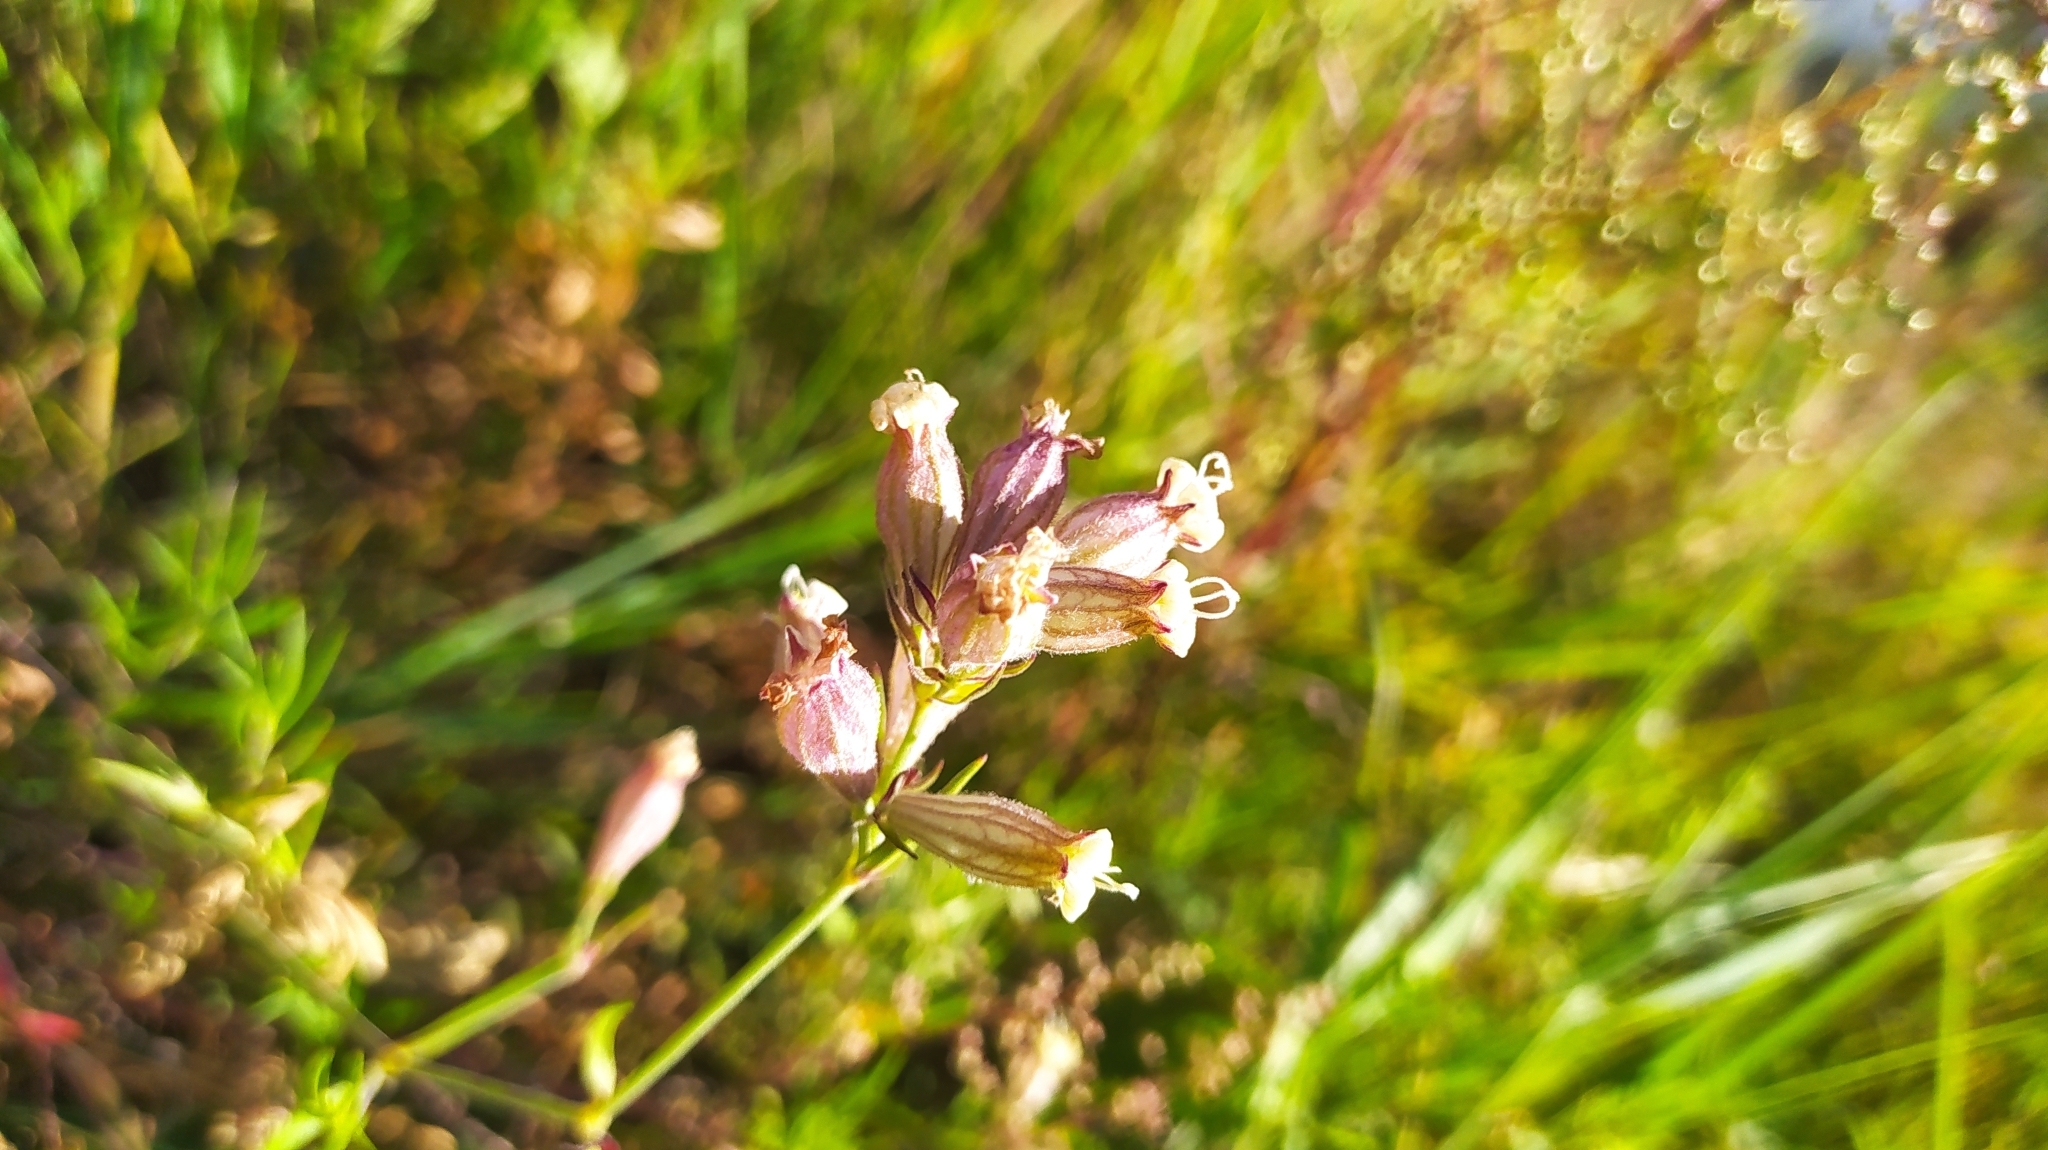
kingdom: Plantae
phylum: Tracheophyta
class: Magnoliopsida
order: Caryophyllales
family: Caryophyllaceae
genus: Silene
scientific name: Silene amoena
